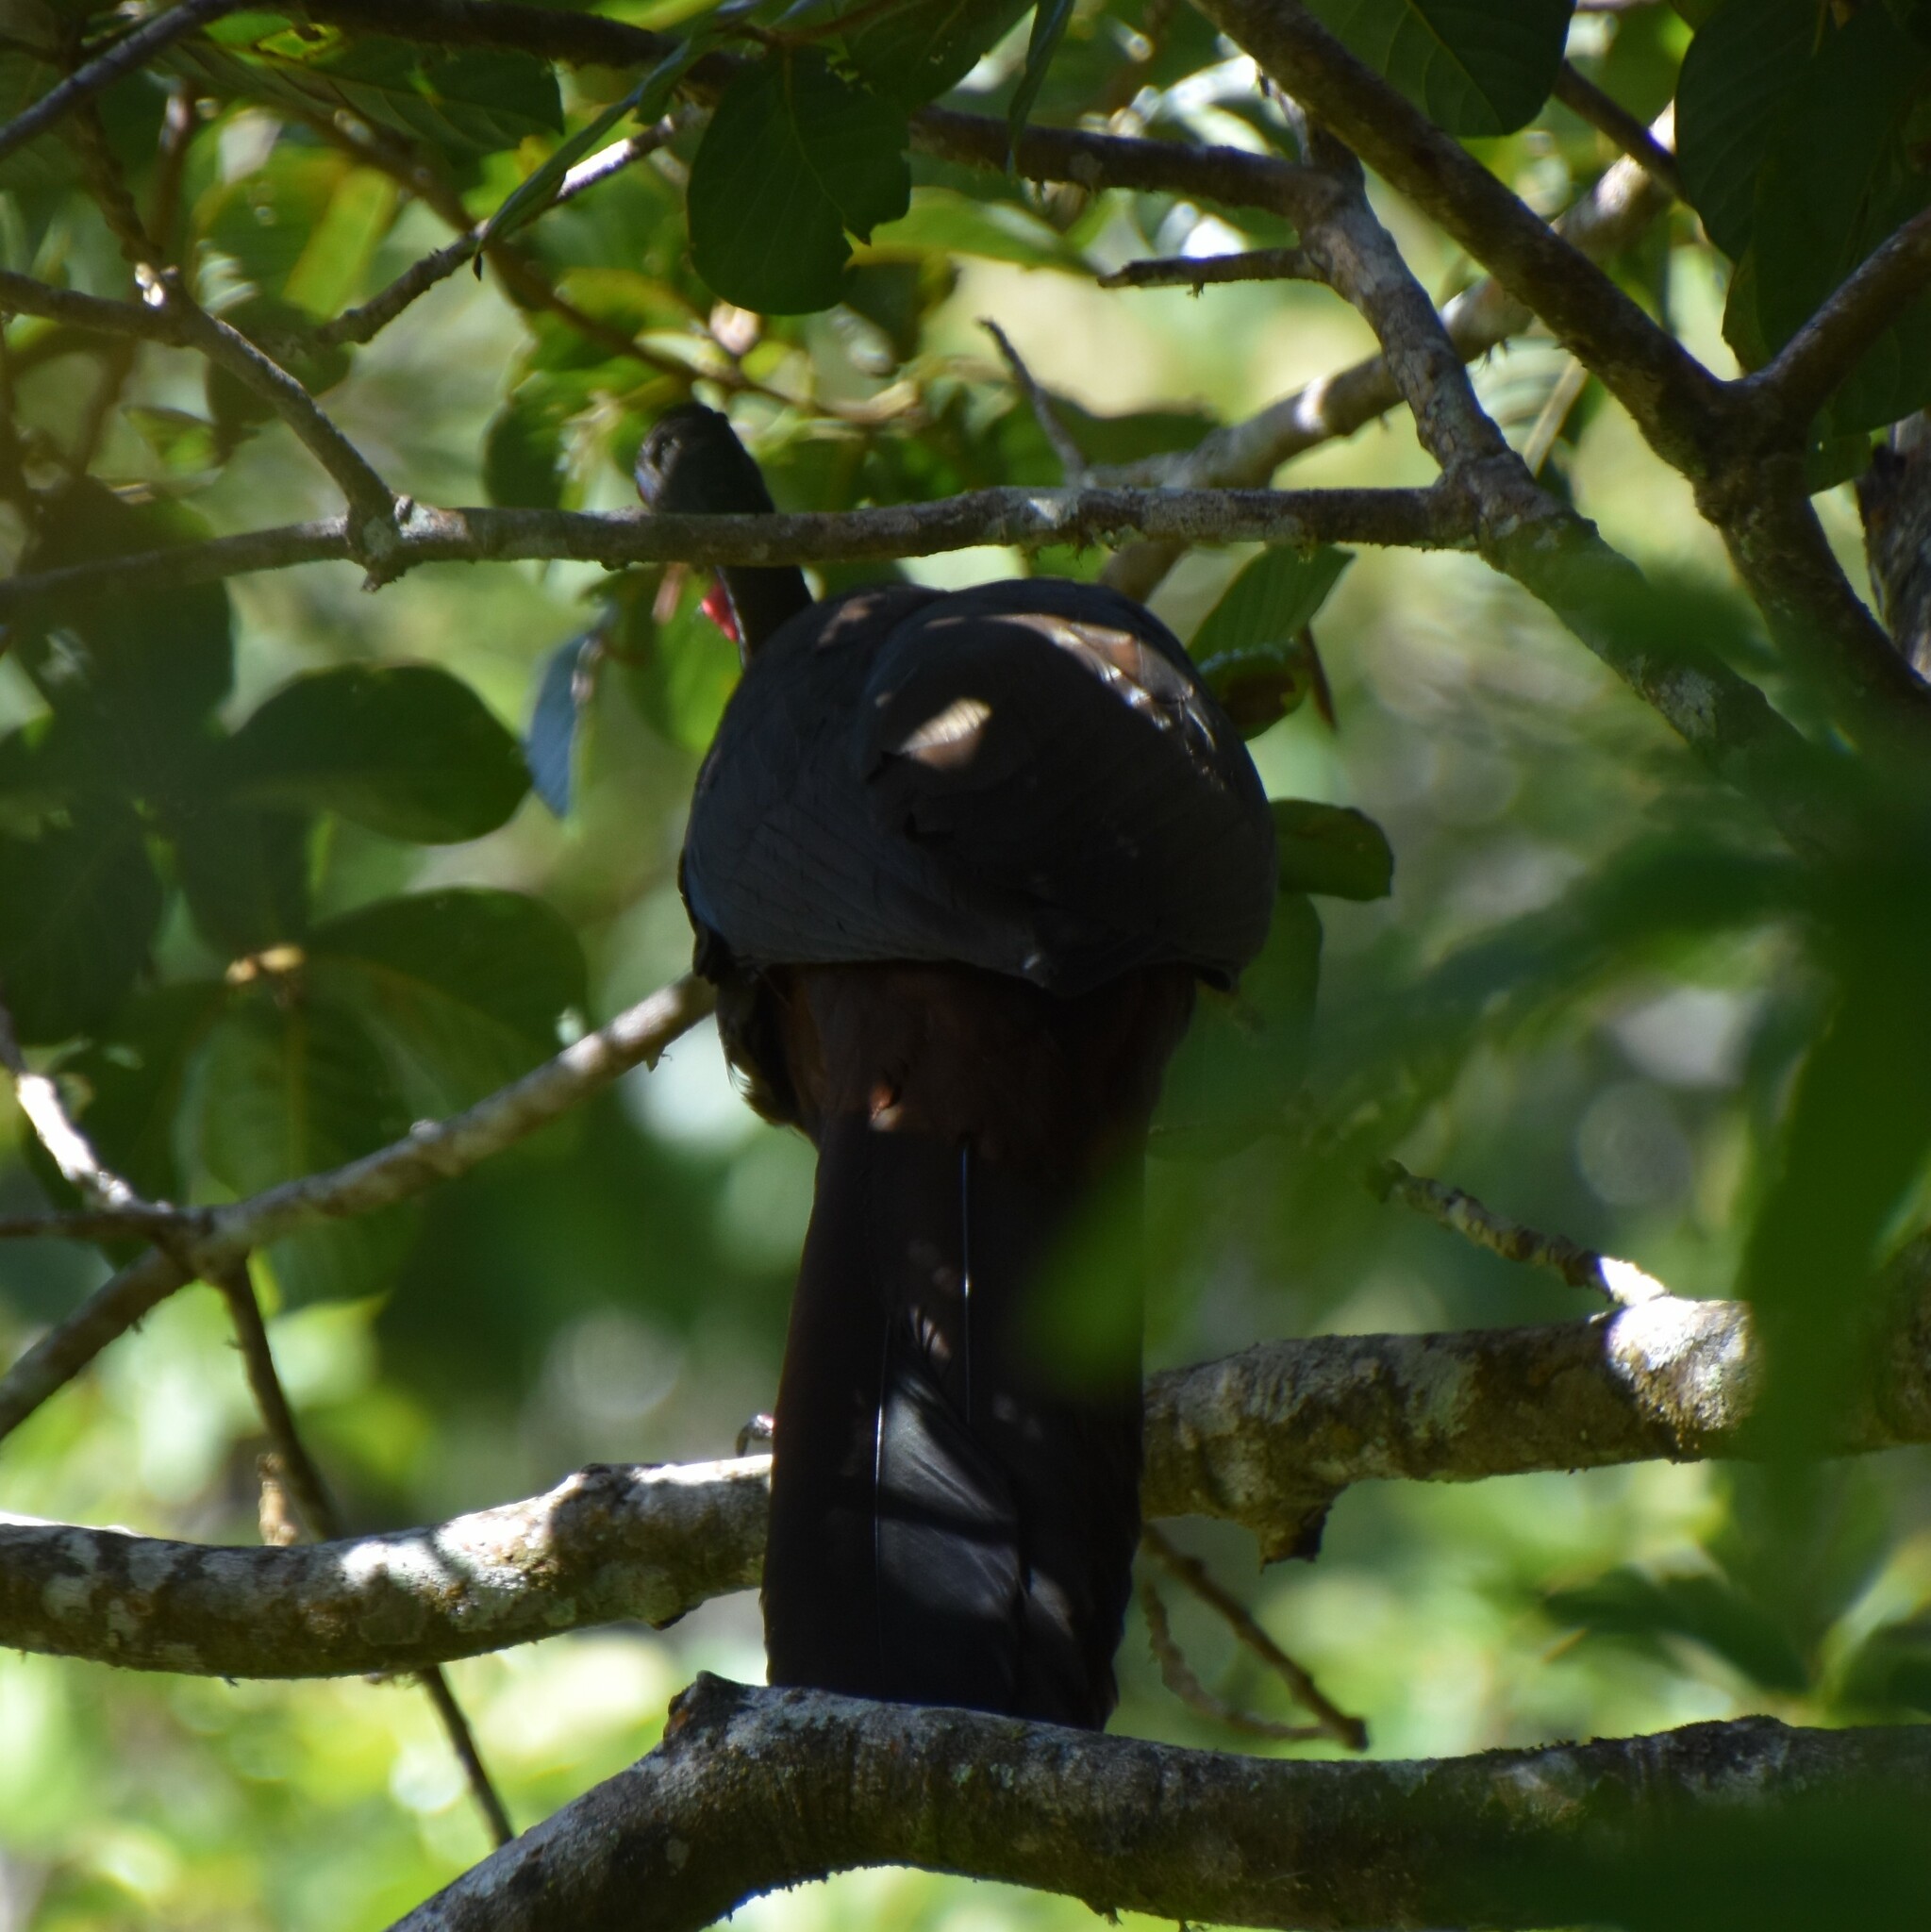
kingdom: Animalia
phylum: Chordata
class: Aves
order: Galliformes
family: Cracidae
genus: Penelope
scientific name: Penelope purpurascens
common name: Crested guan
